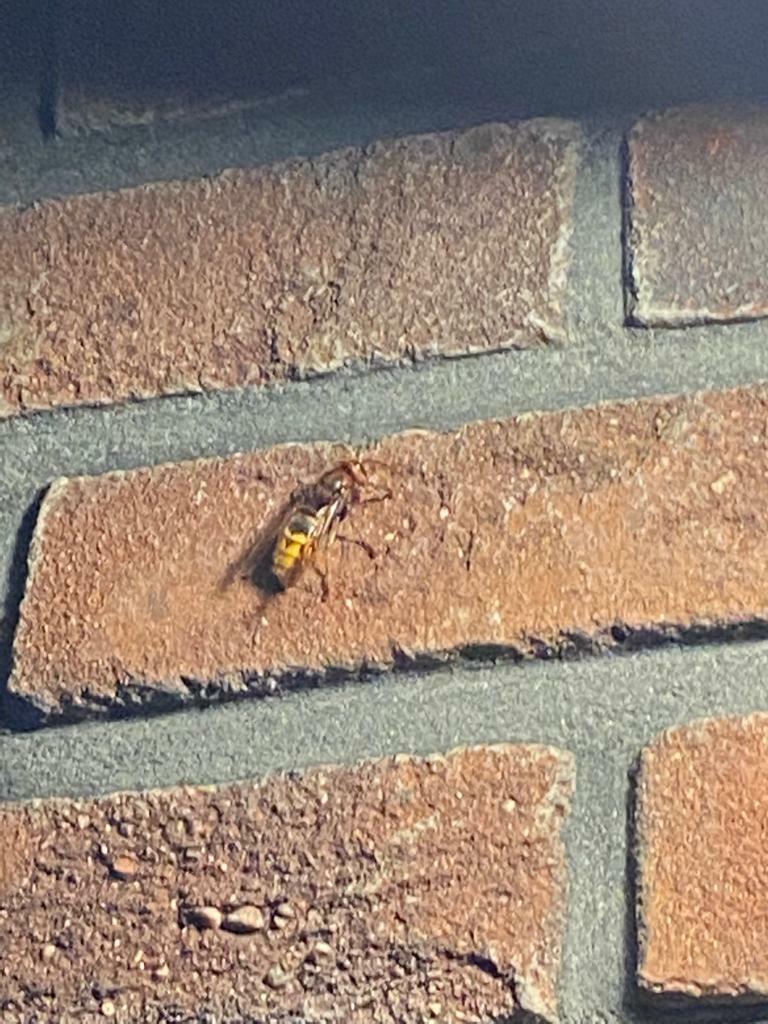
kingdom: Animalia
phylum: Arthropoda
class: Insecta
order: Hymenoptera
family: Vespidae
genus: Vespa
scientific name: Vespa crabro
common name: Hornet
